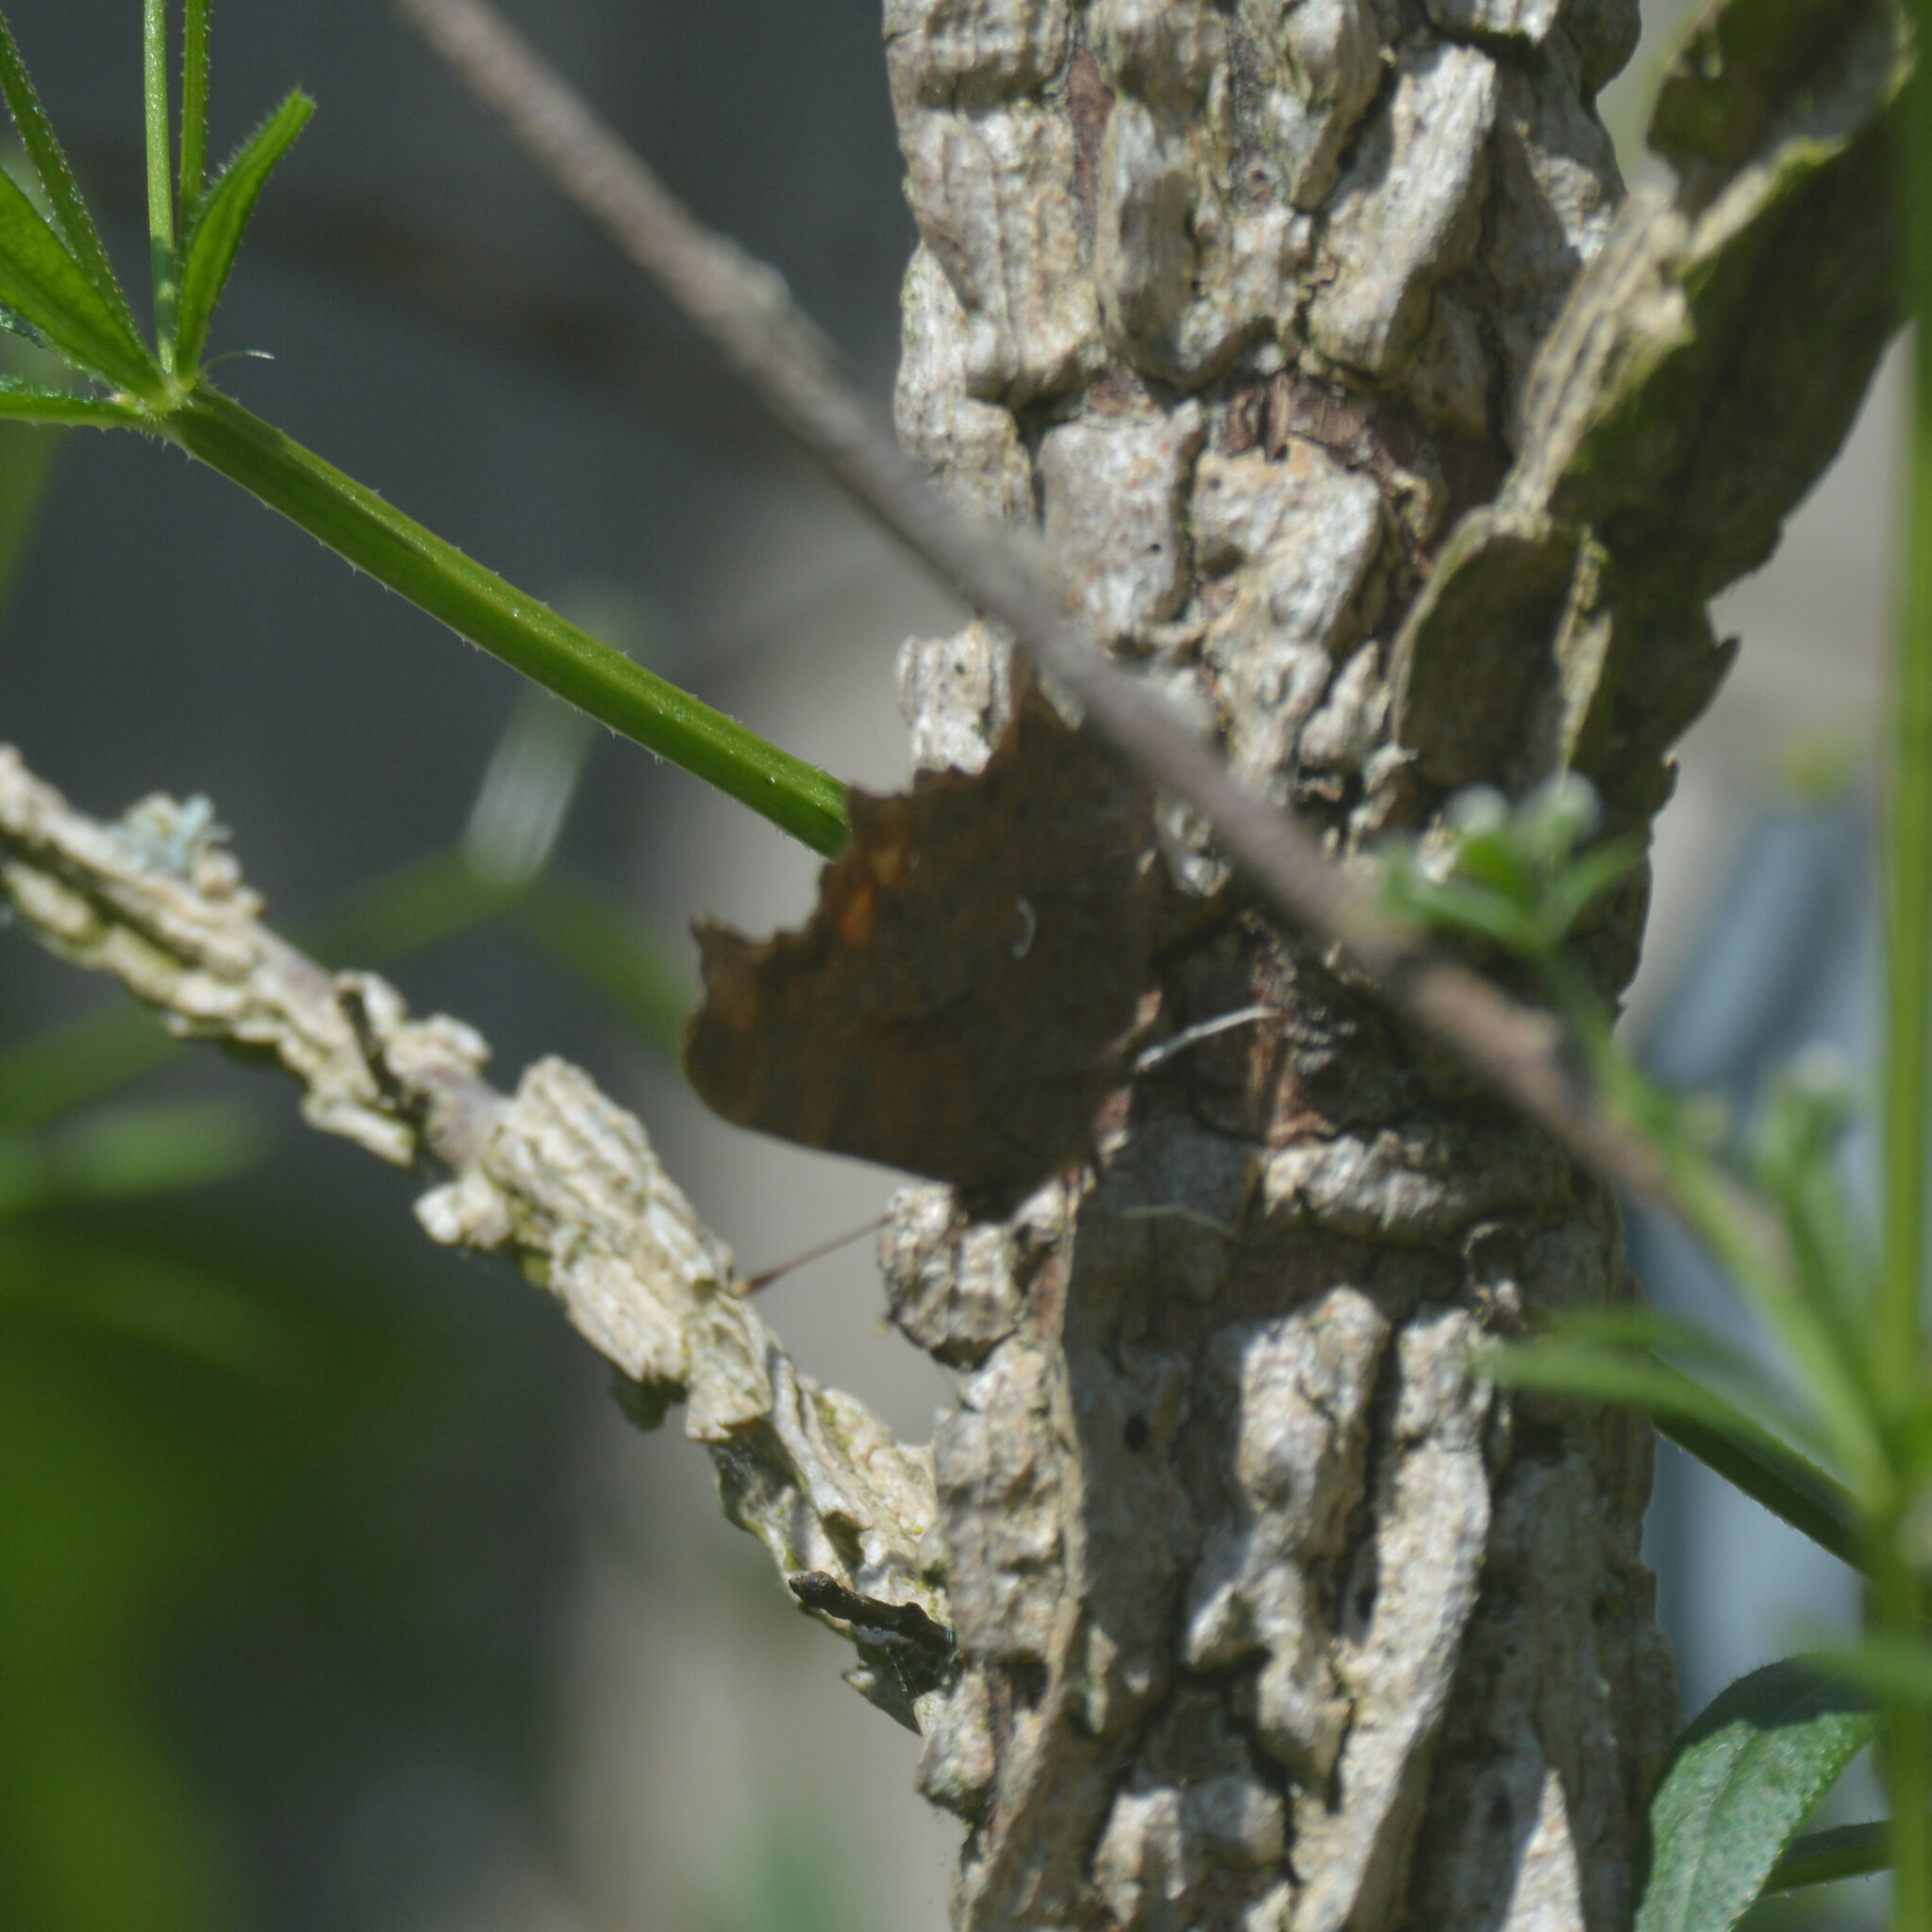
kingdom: Animalia
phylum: Arthropoda
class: Insecta
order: Lepidoptera
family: Nymphalidae
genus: Polygonia
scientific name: Polygonia c-album
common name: Comma
